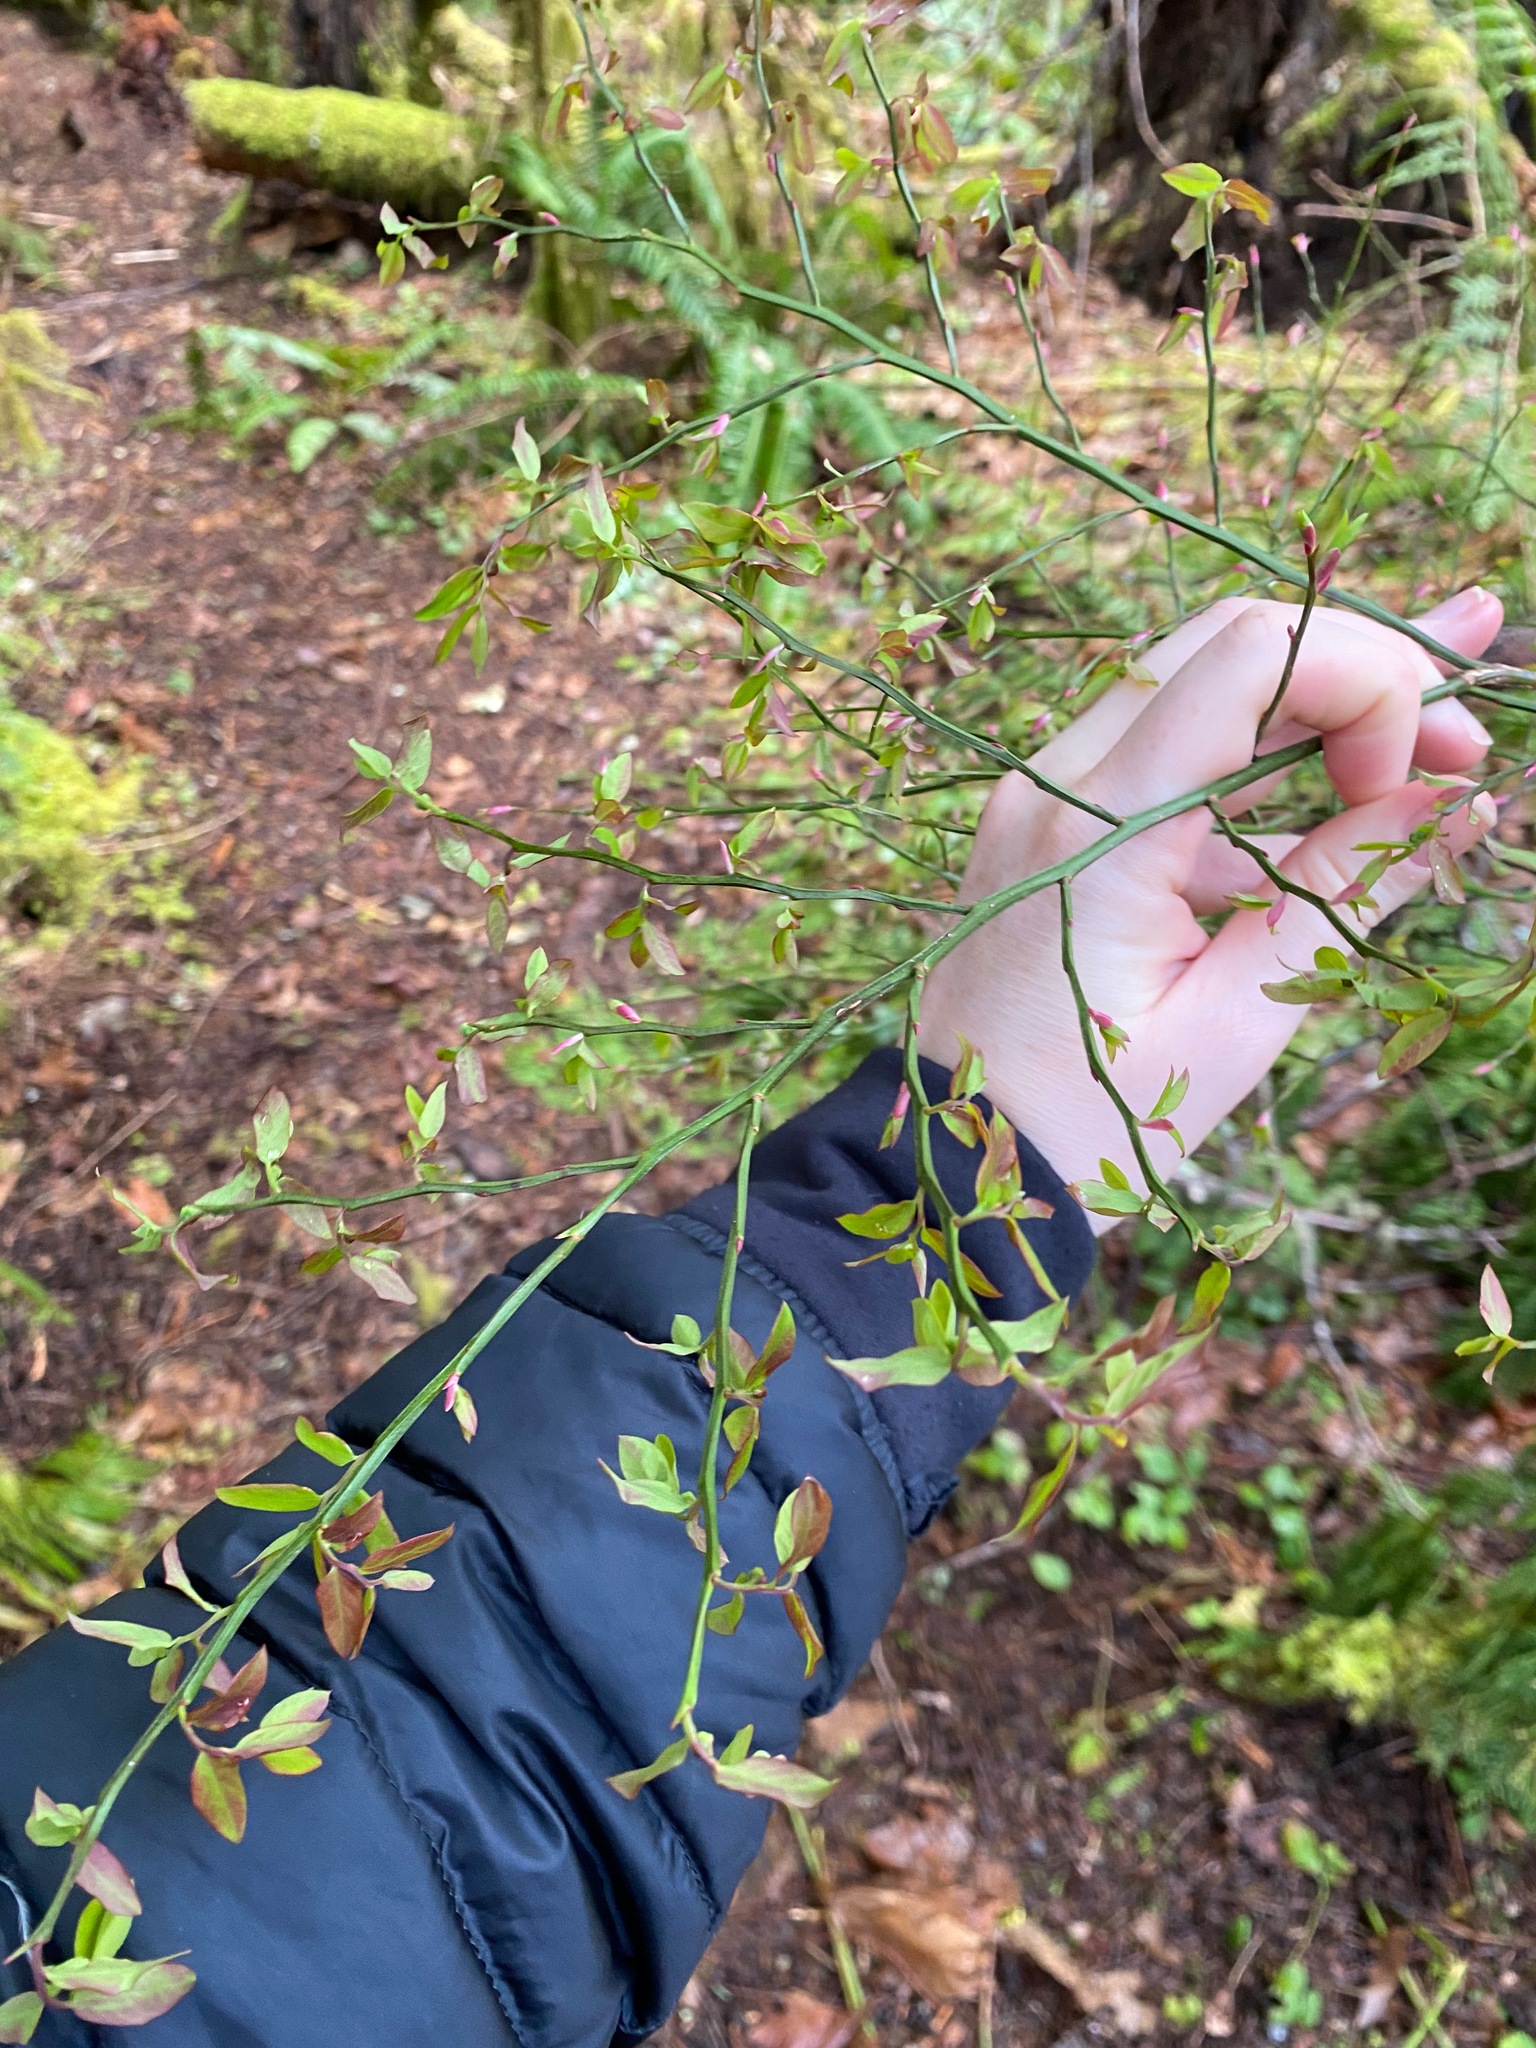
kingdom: Plantae
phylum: Tracheophyta
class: Magnoliopsida
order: Ericales
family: Ericaceae
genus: Vaccinium
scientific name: Vaccinium parvifolium
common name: Red-huckleberry
